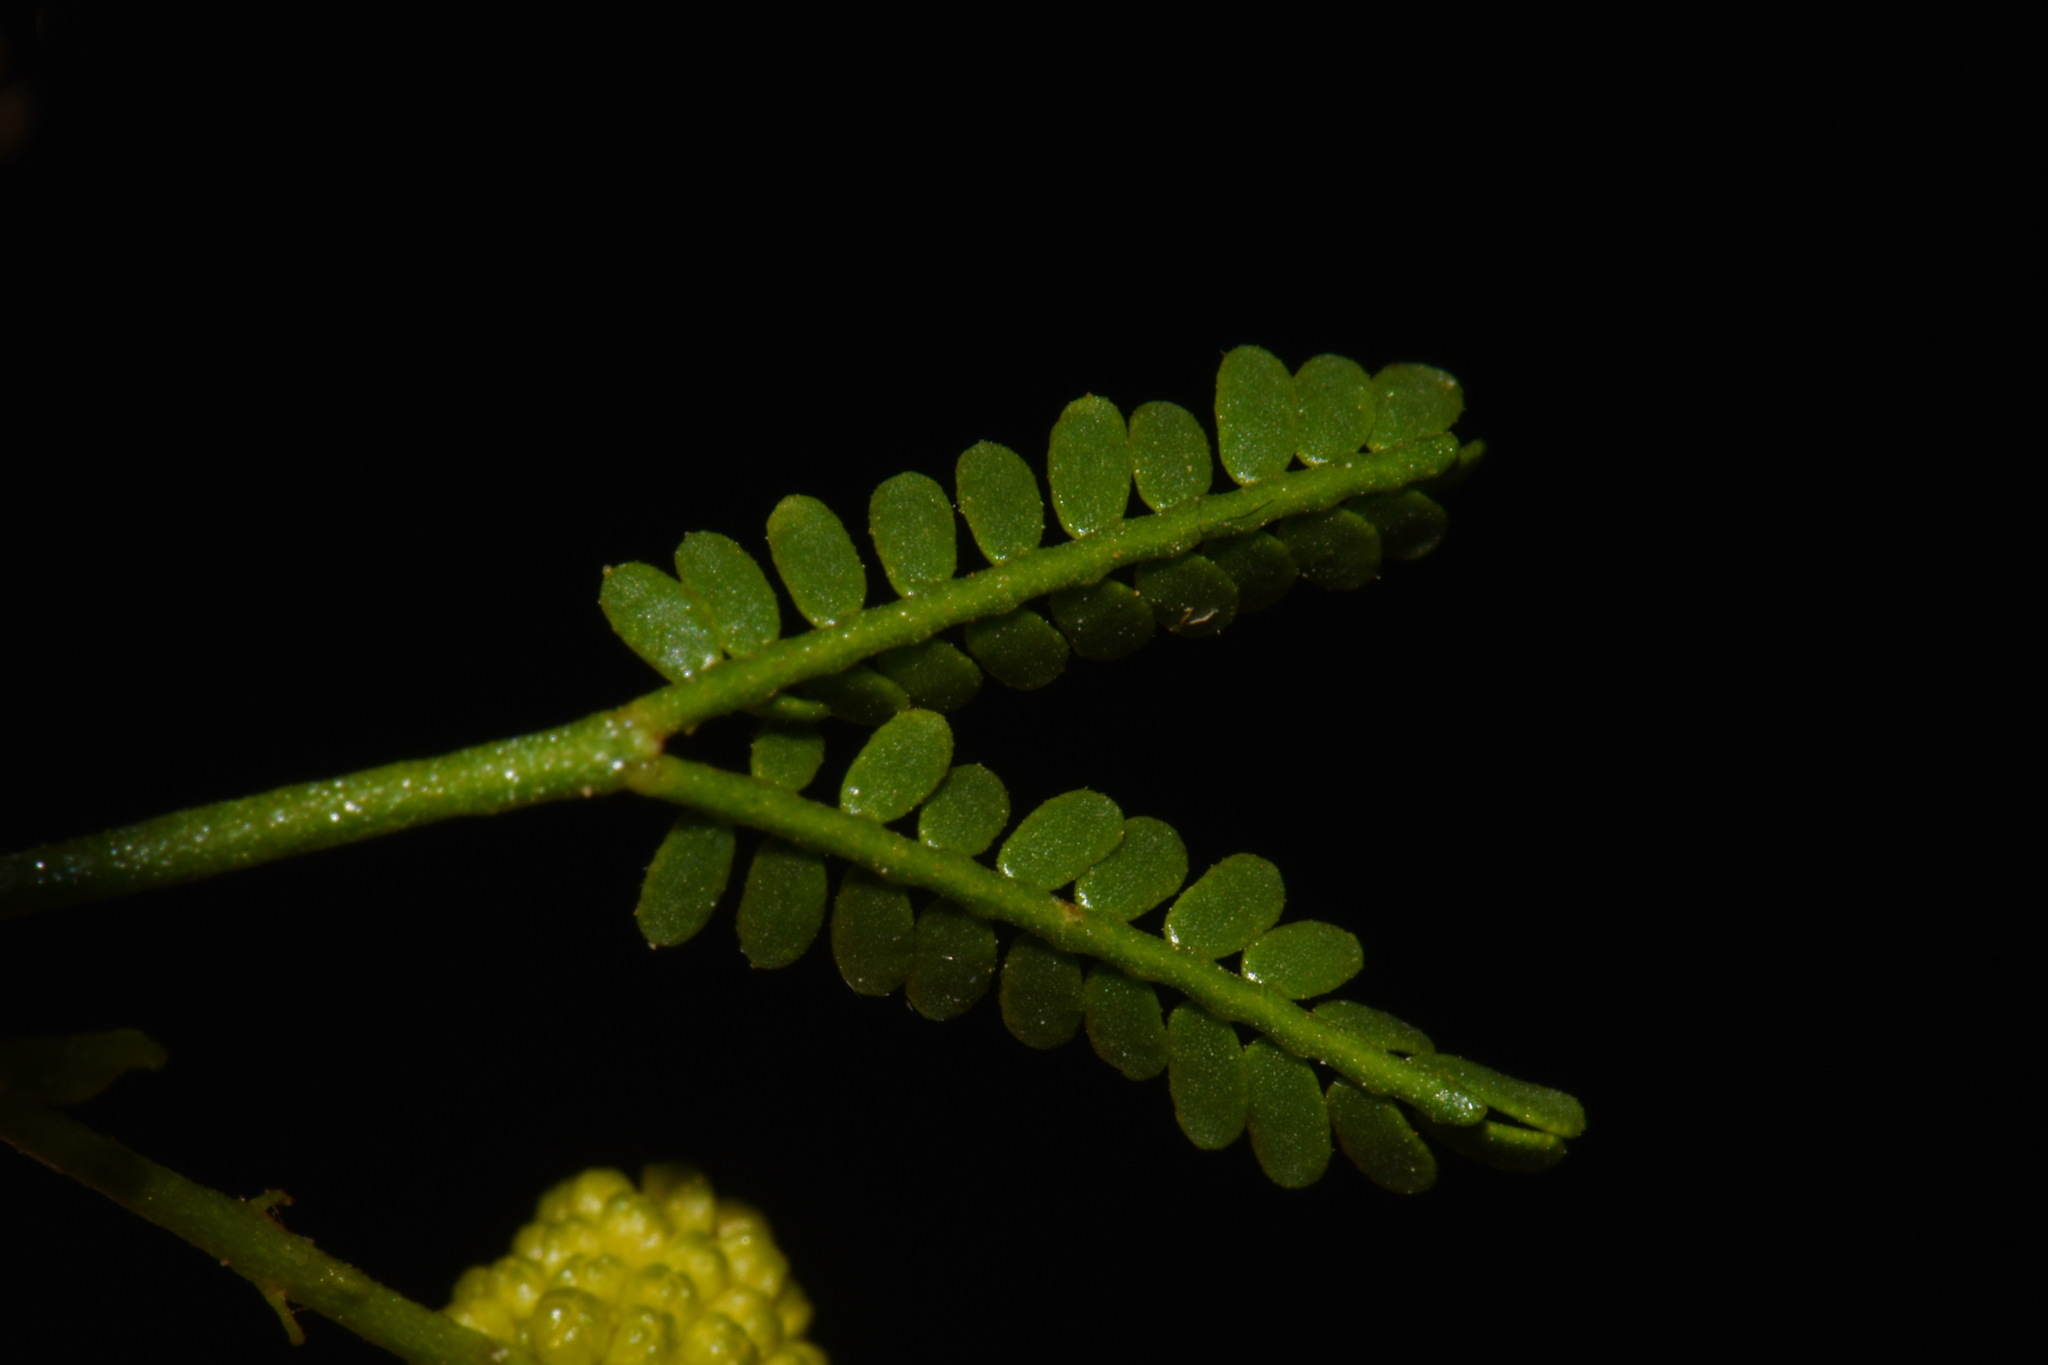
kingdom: Plantae
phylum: Tracheophyta
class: Magnoliopsida
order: Fabales
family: Fabaceae
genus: Vachellia
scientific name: Vachellia vernicosa
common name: Viscid acacia
